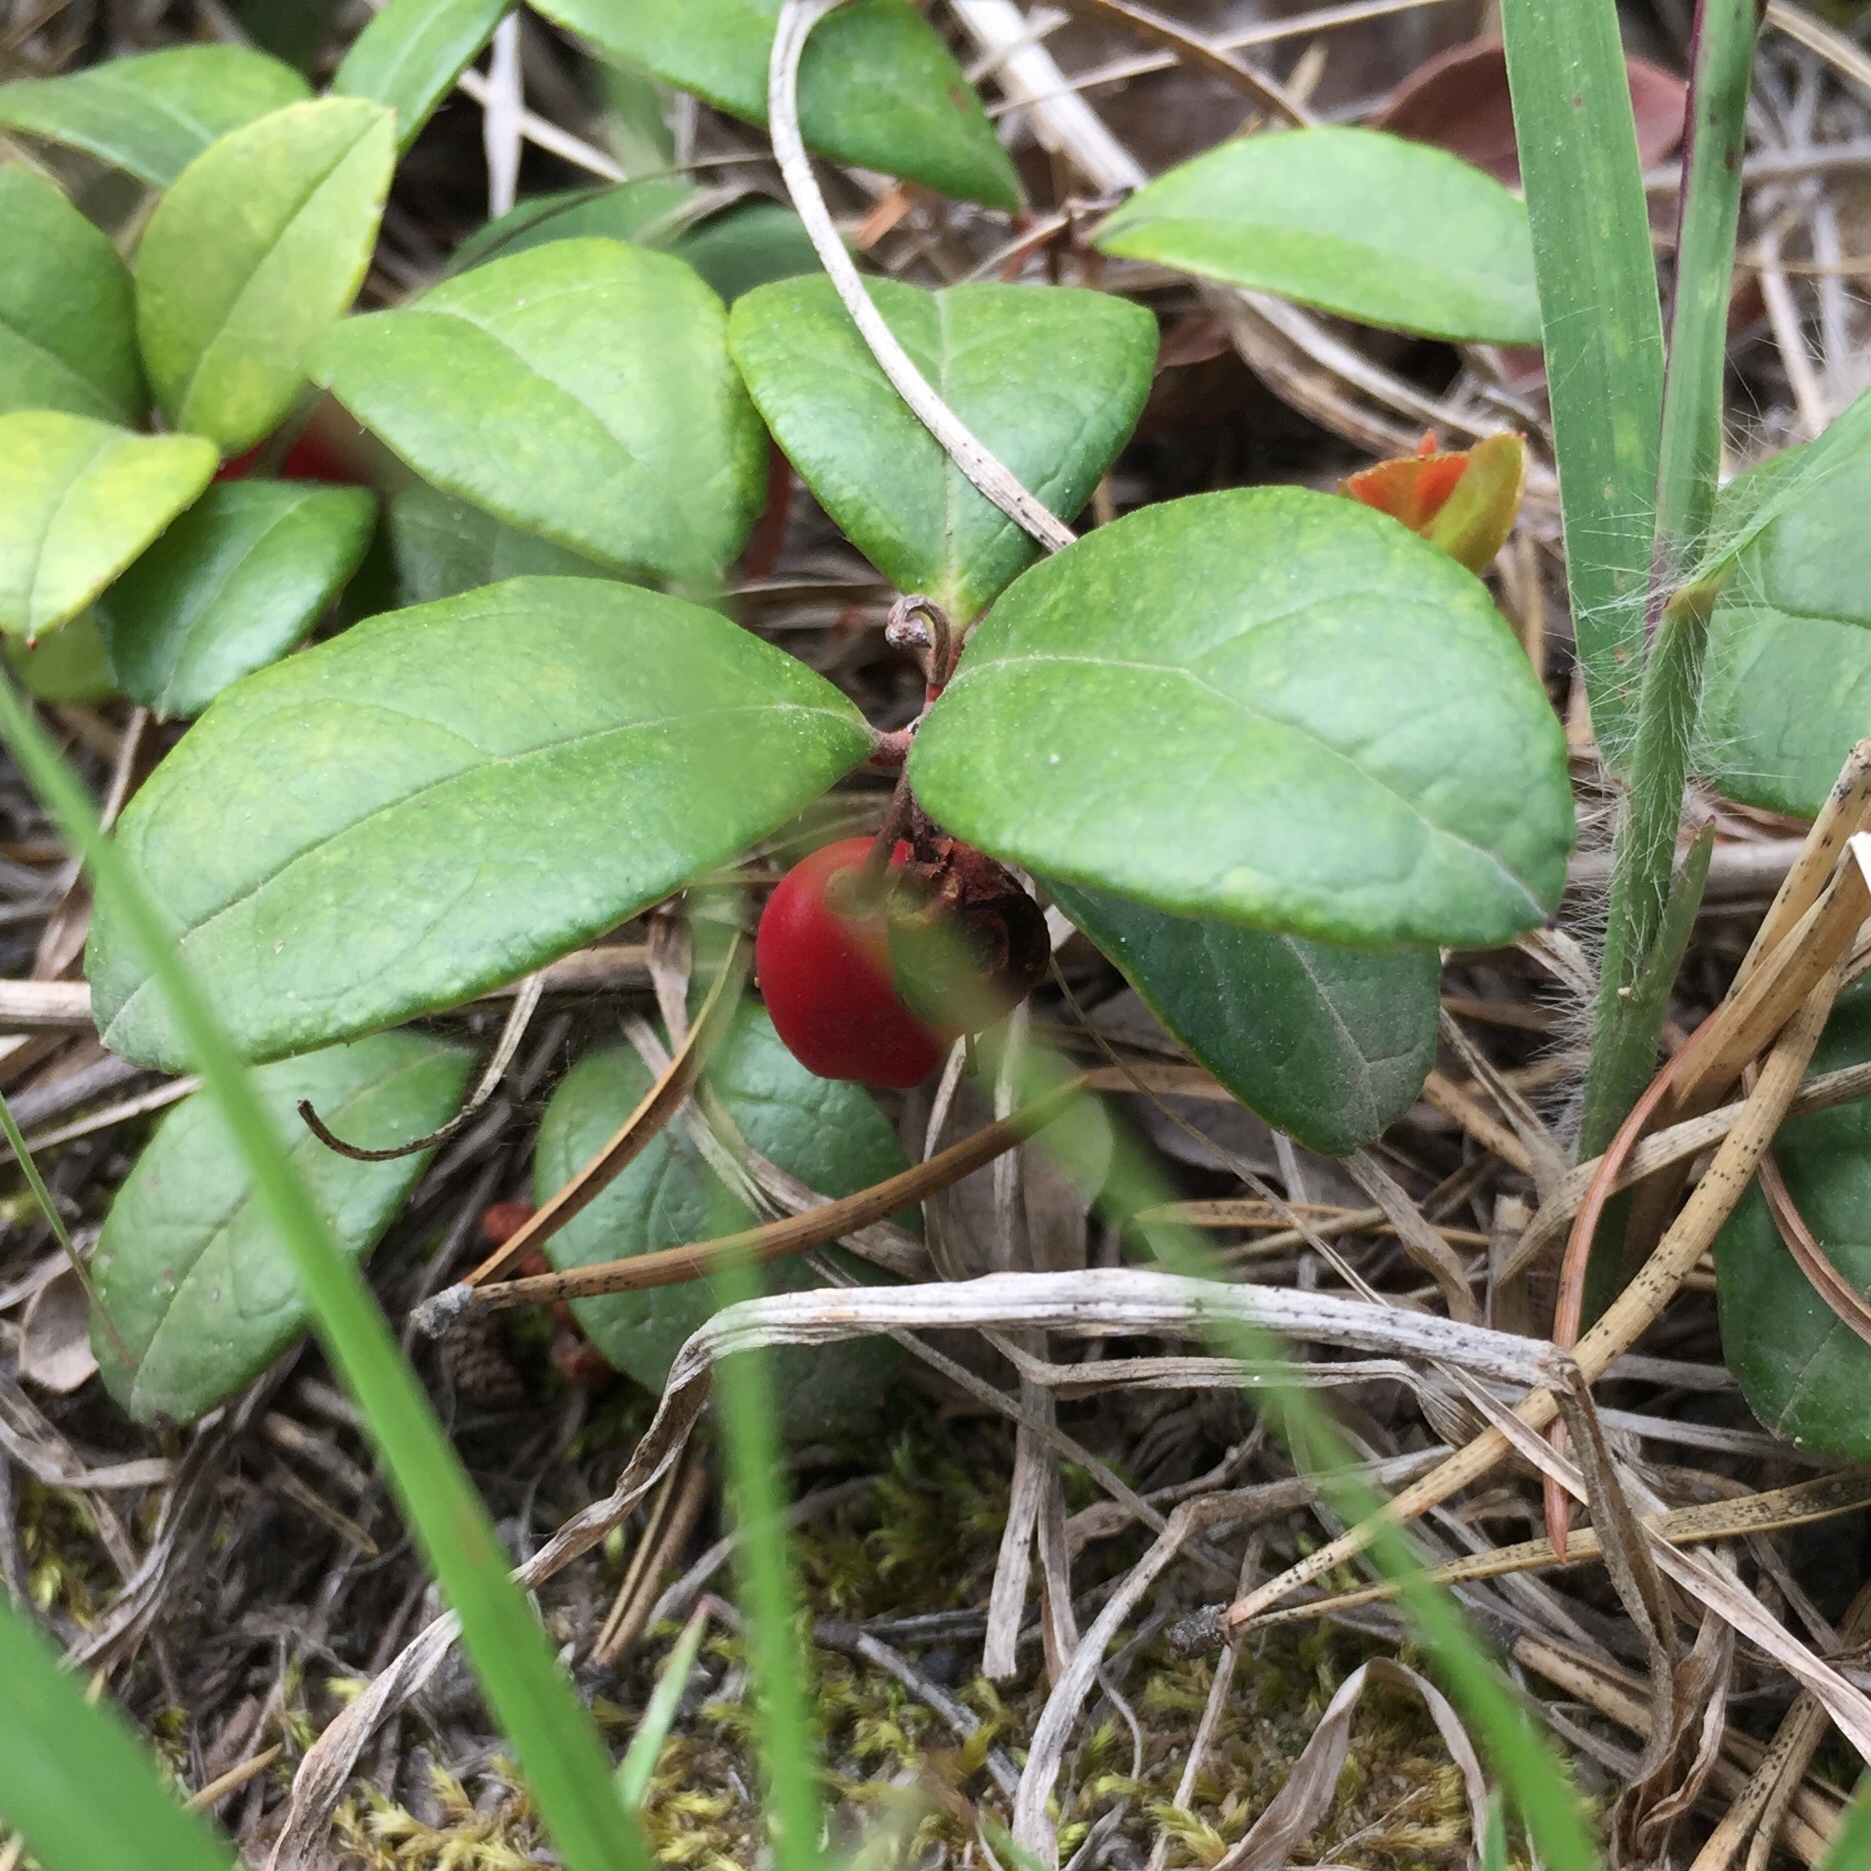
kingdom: Plantae
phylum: Tracheophyta
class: Magnoliopsida
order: Ericales
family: Ericaceae
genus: Gaultheria
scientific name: Gaultheria procumbens
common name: Checkerberry
